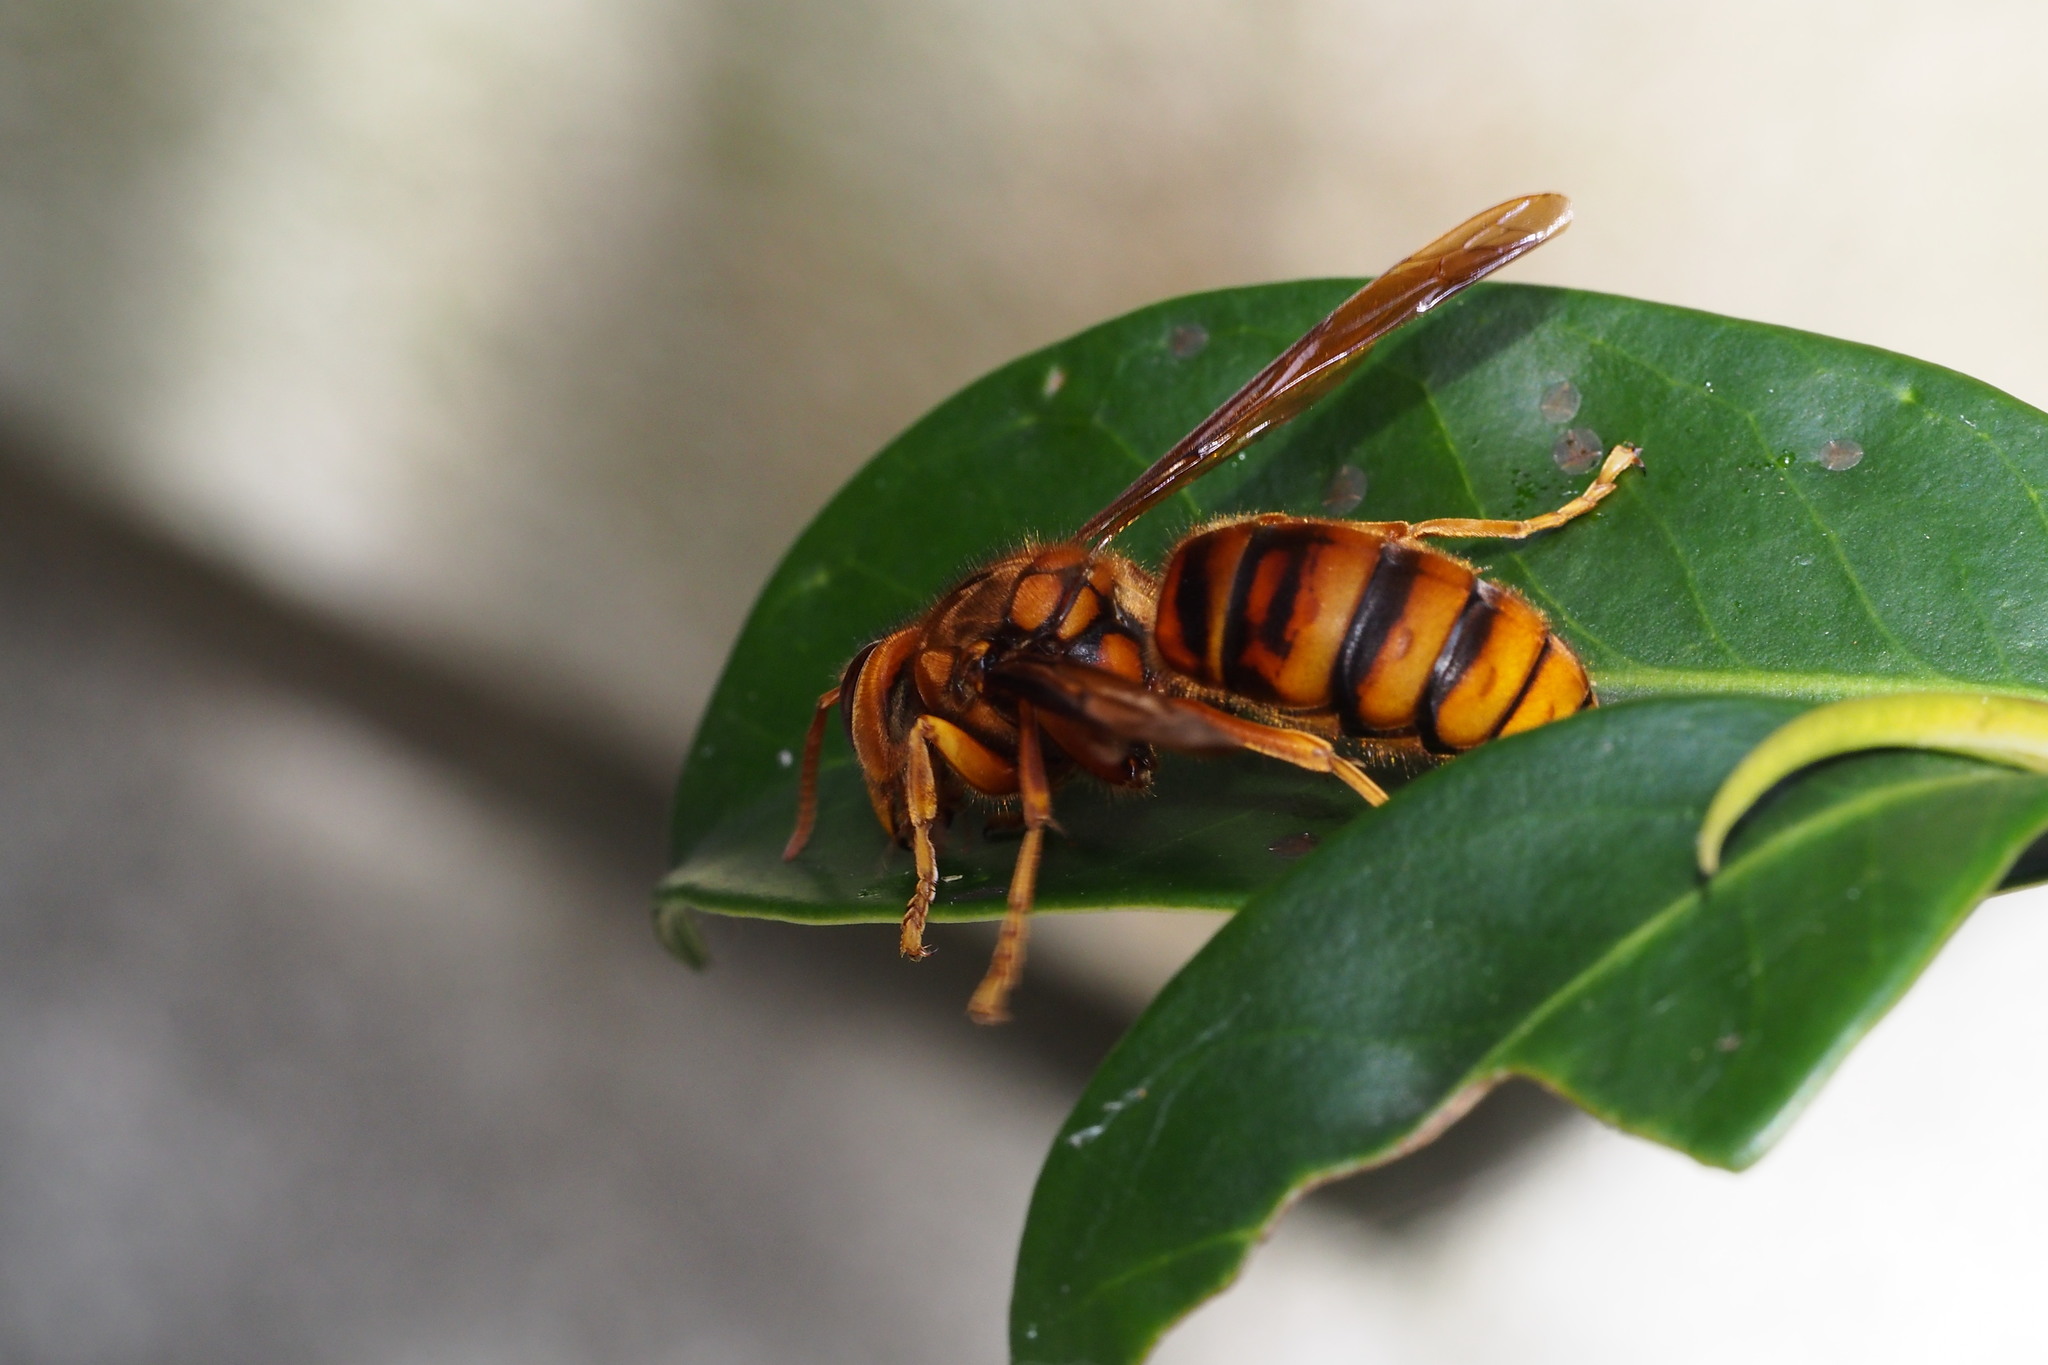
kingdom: Animalia
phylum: Arthropoda
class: Insecta
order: Hymenoptera
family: Vespidae
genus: Vespa
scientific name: Vespa simillima
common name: Vespid wasp
